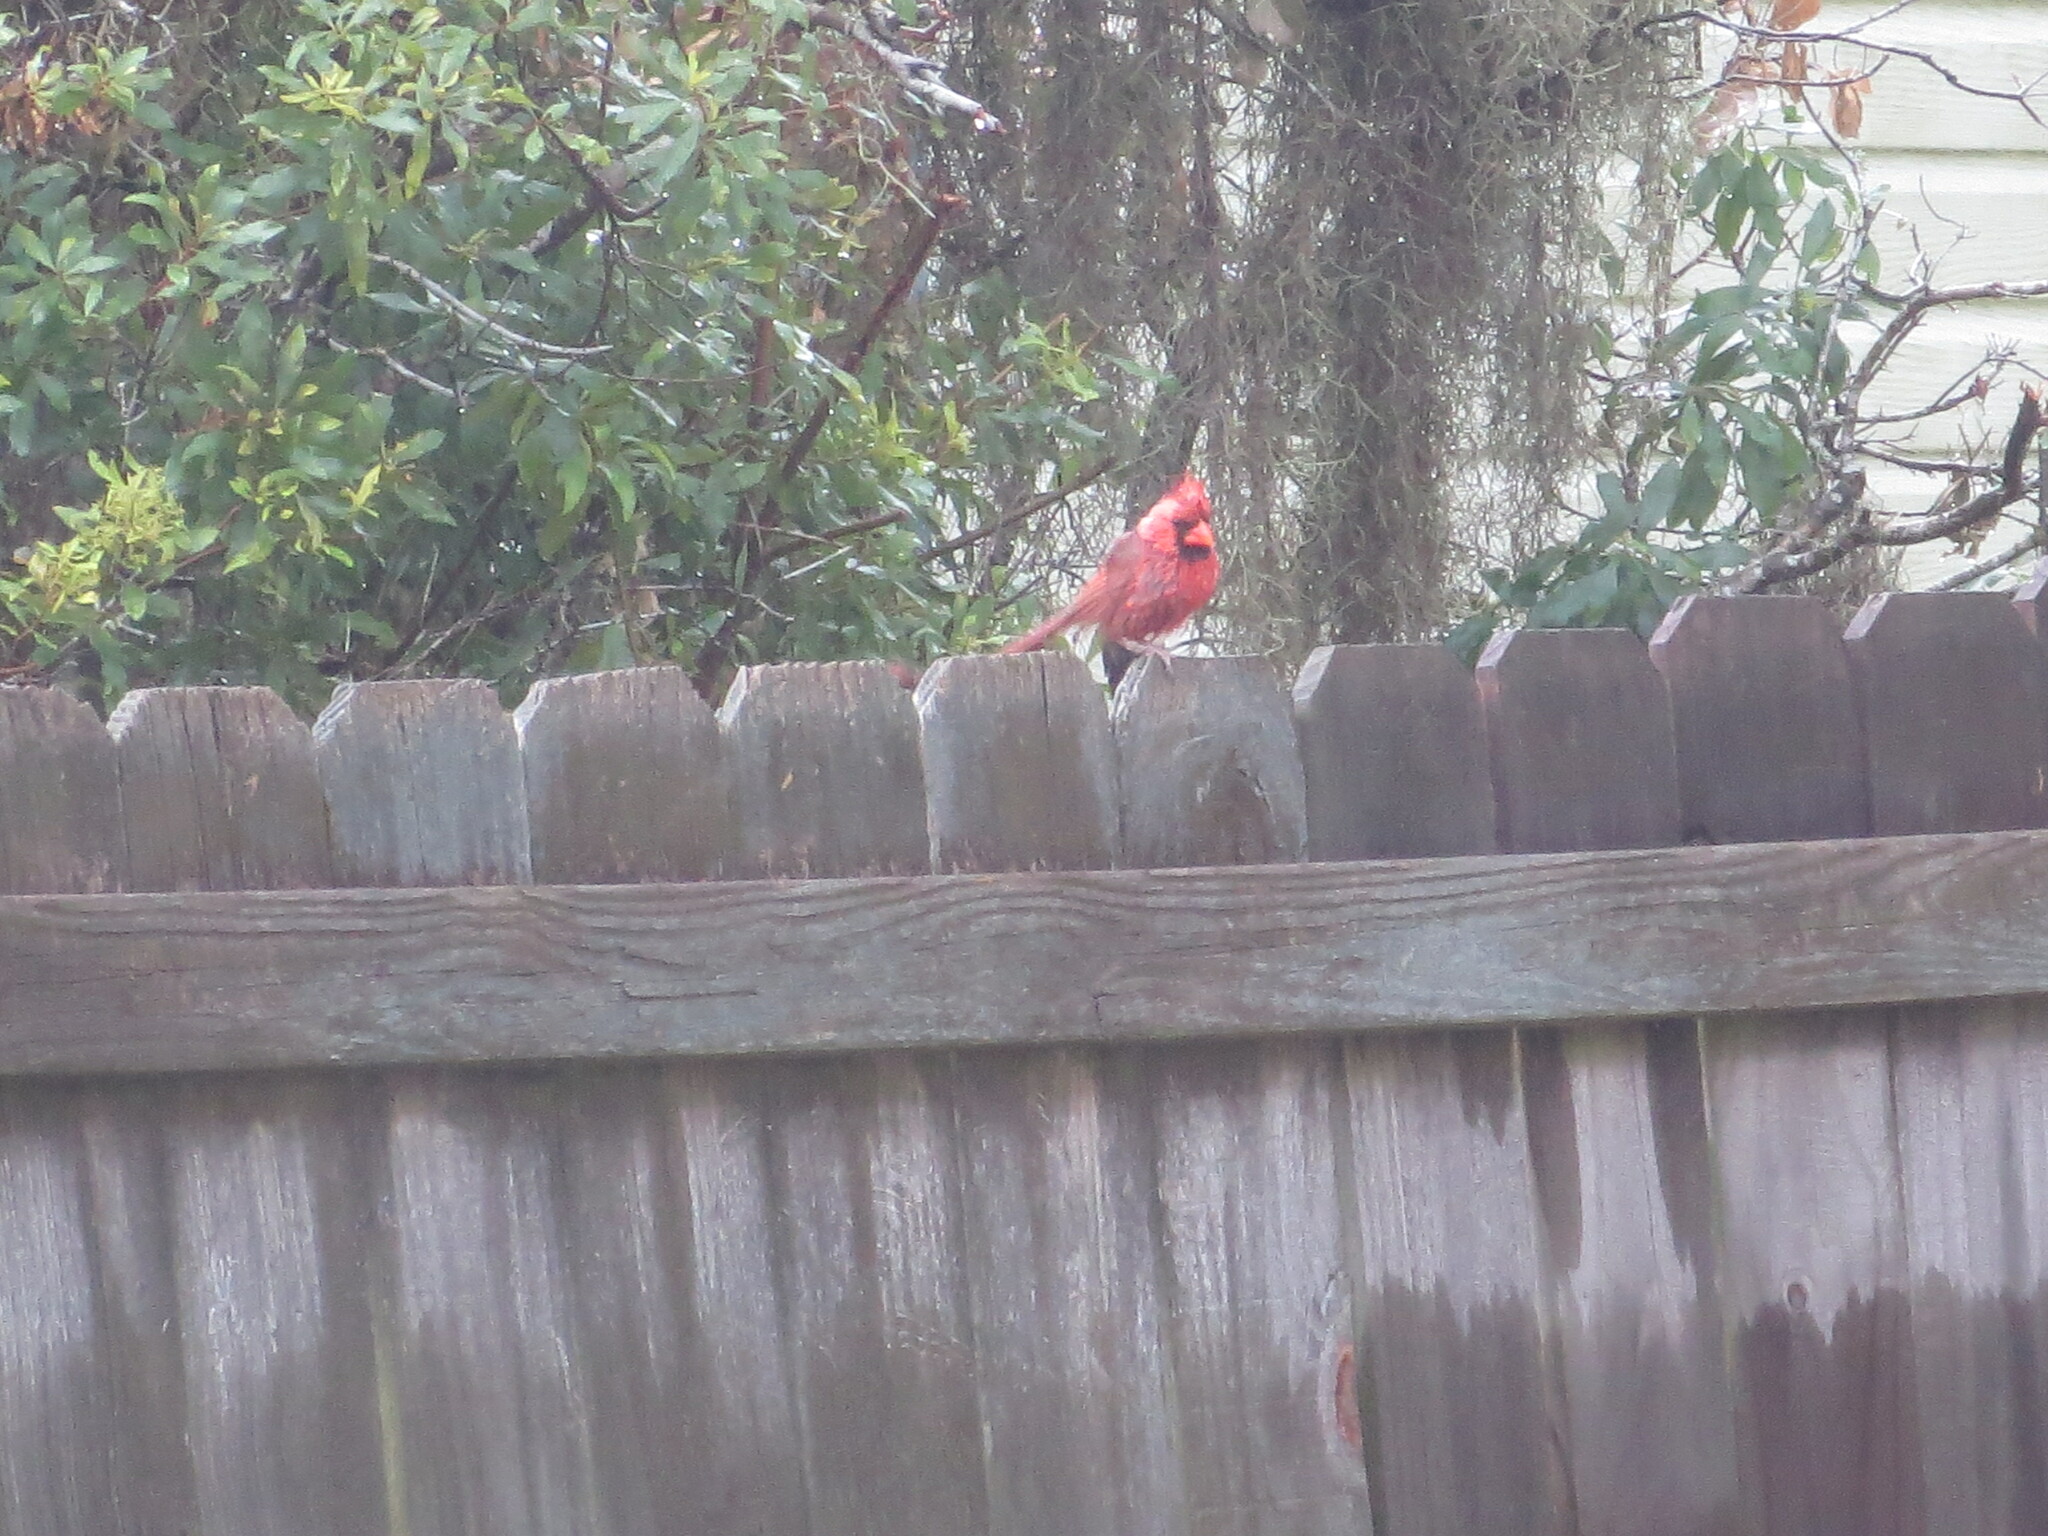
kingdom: Animalia
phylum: Chordata
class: Aves
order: Passeriformes
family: Cardinalidae
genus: Cardinalis
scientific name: Cardinalis cardinalis
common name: Northern cardinal
